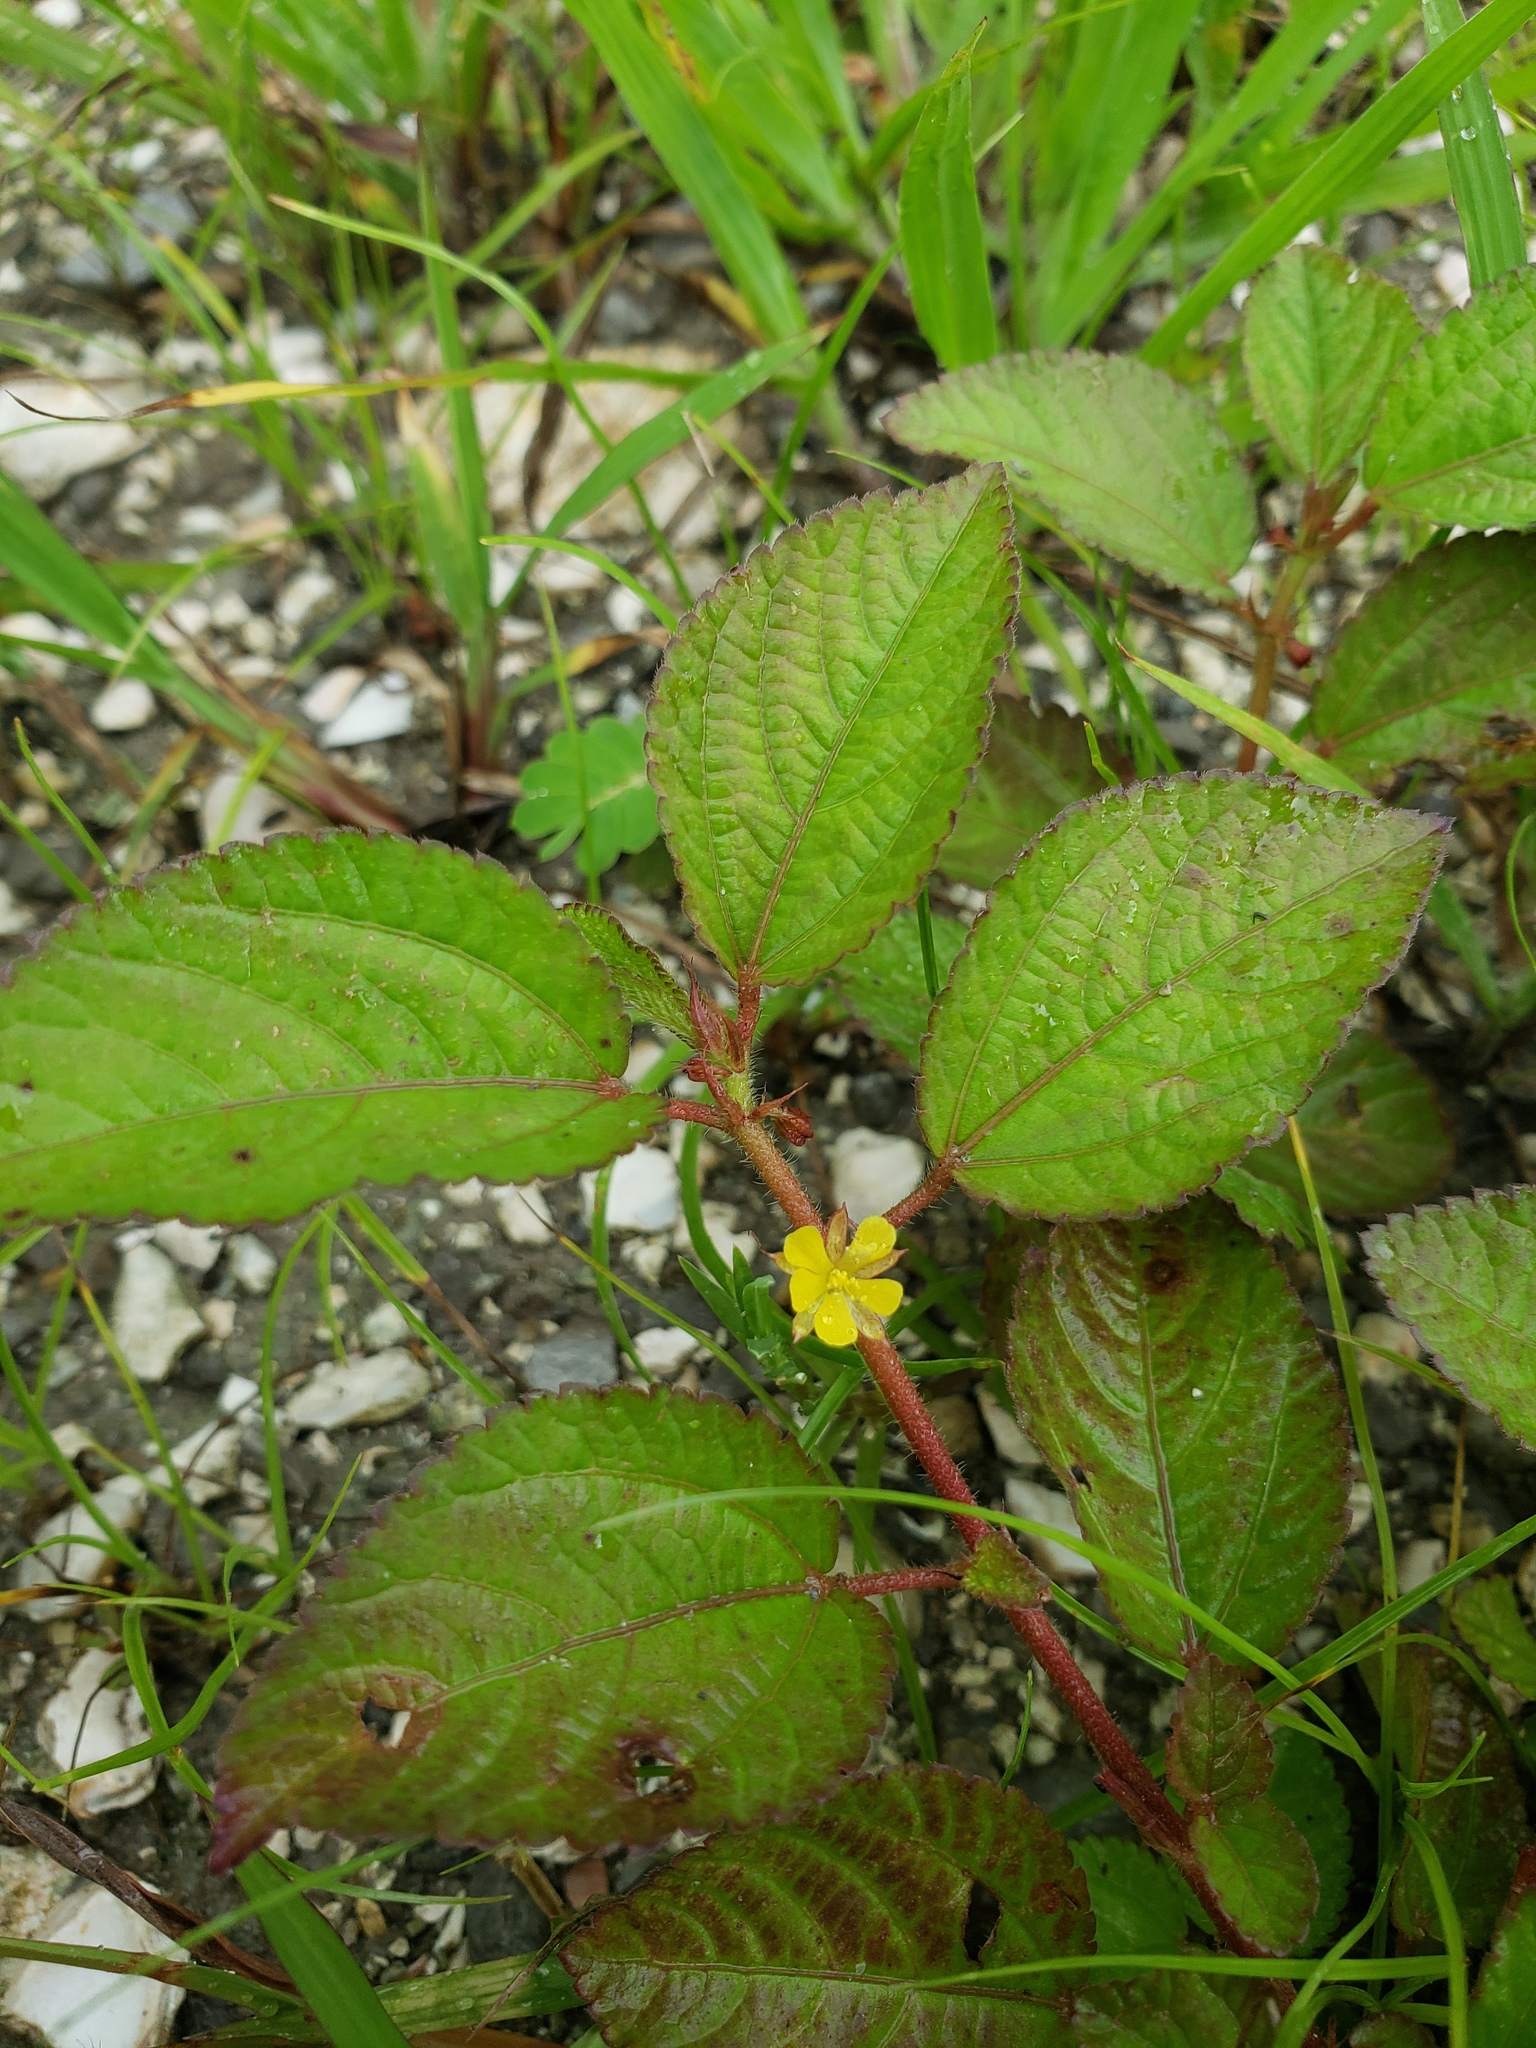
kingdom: Plantae
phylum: Tracheophyta
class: Magnoliopsida
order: Malvales
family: Malvaceae
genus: Corchorus
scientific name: Corchorus aestuans
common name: Jute
